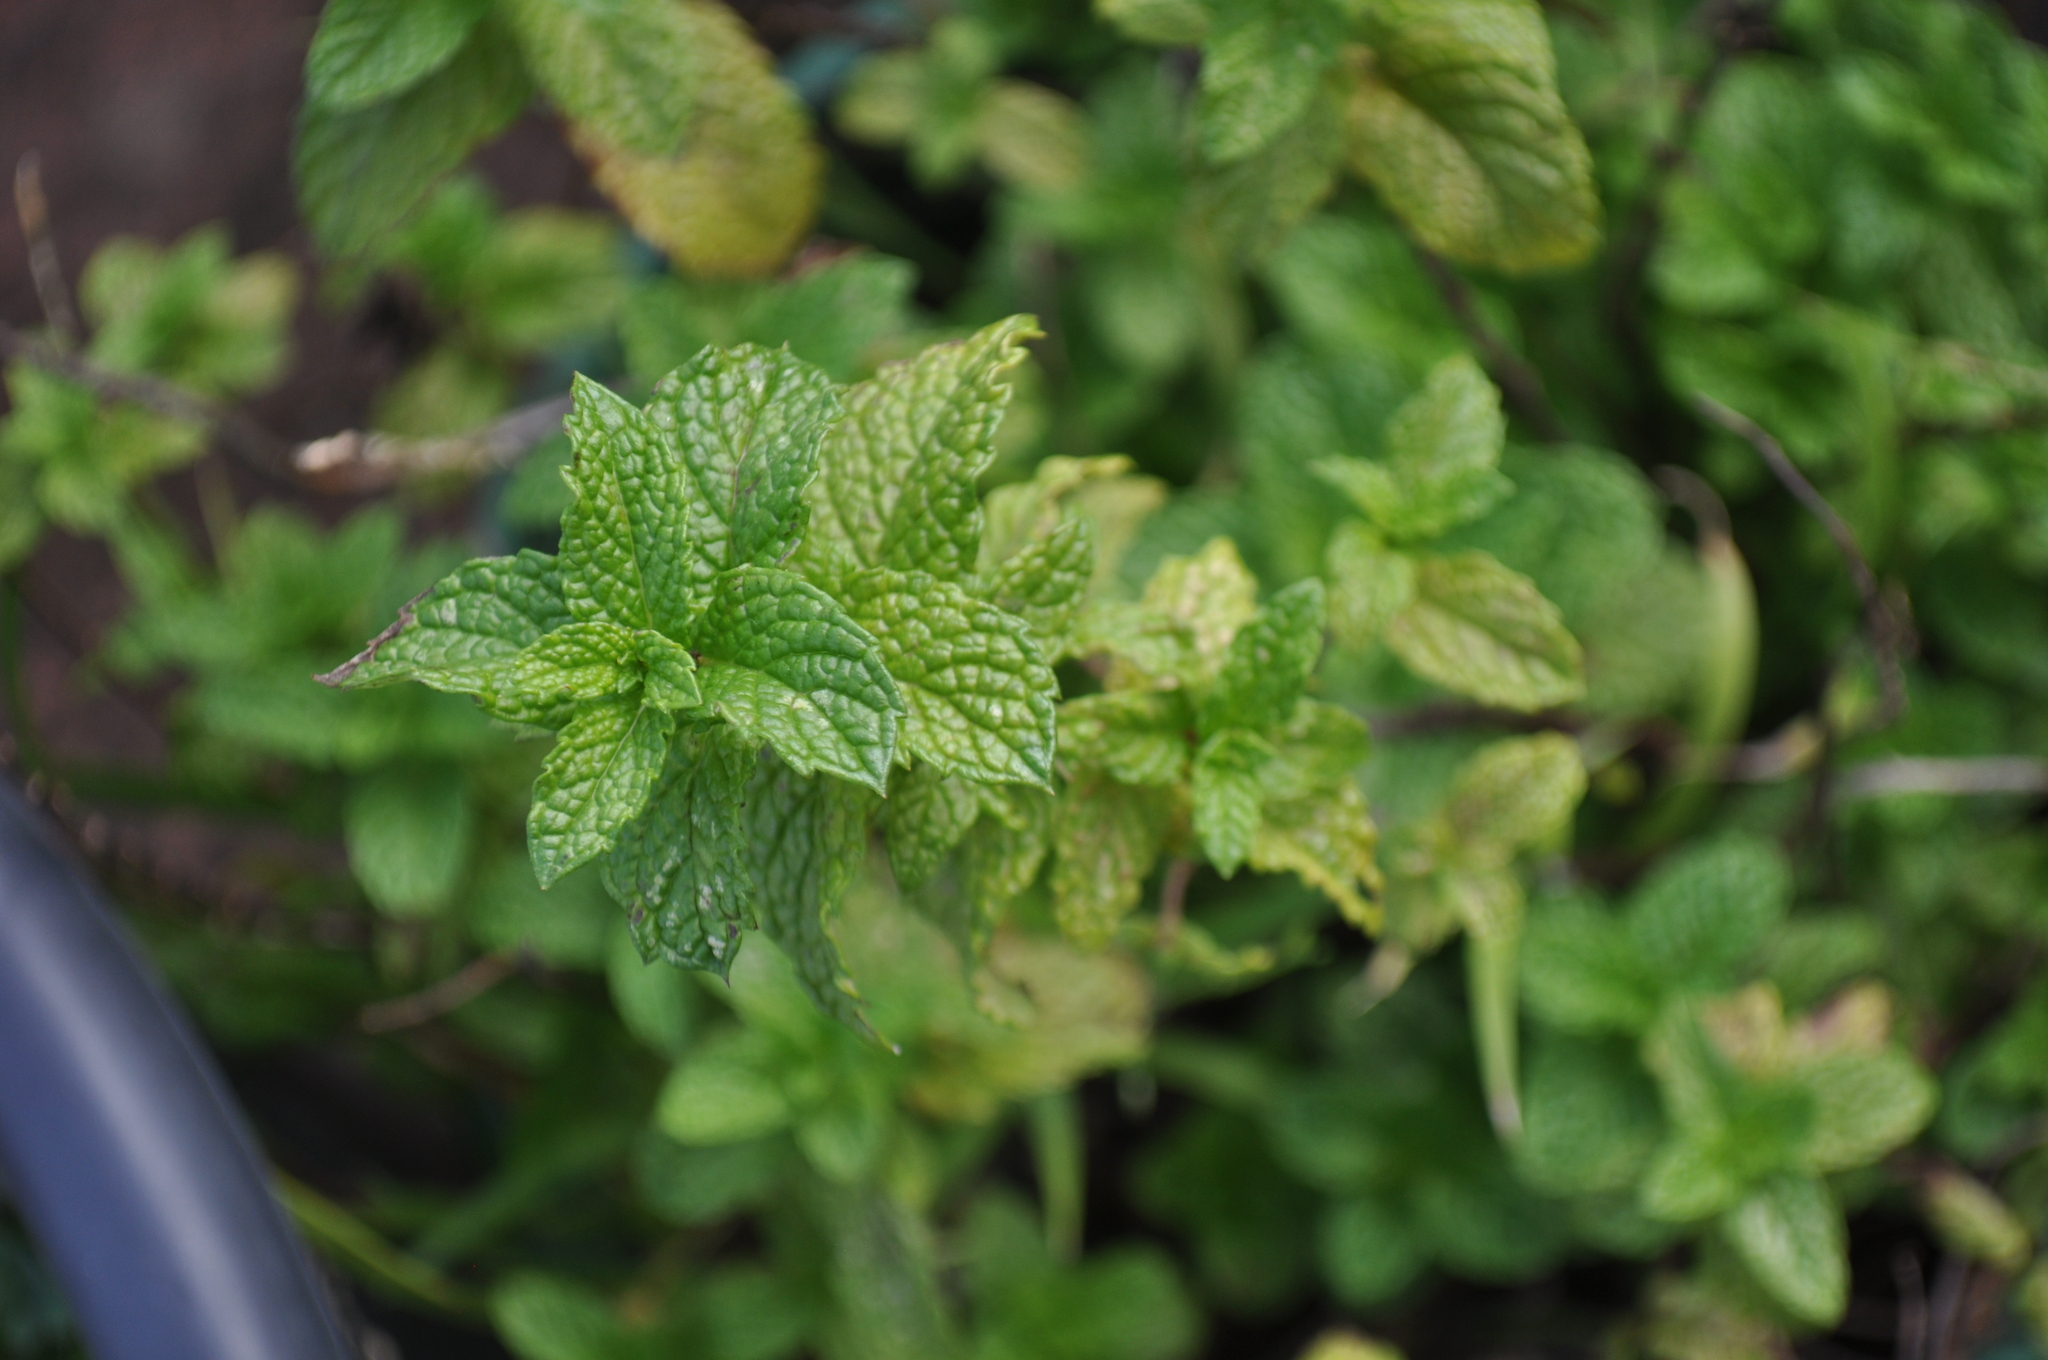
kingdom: Plantae
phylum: Tracheophyta
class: Magnoliopsida
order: Lamiales
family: Lamiaceae
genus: Mentha
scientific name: Mentha spicata
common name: Spearmint
